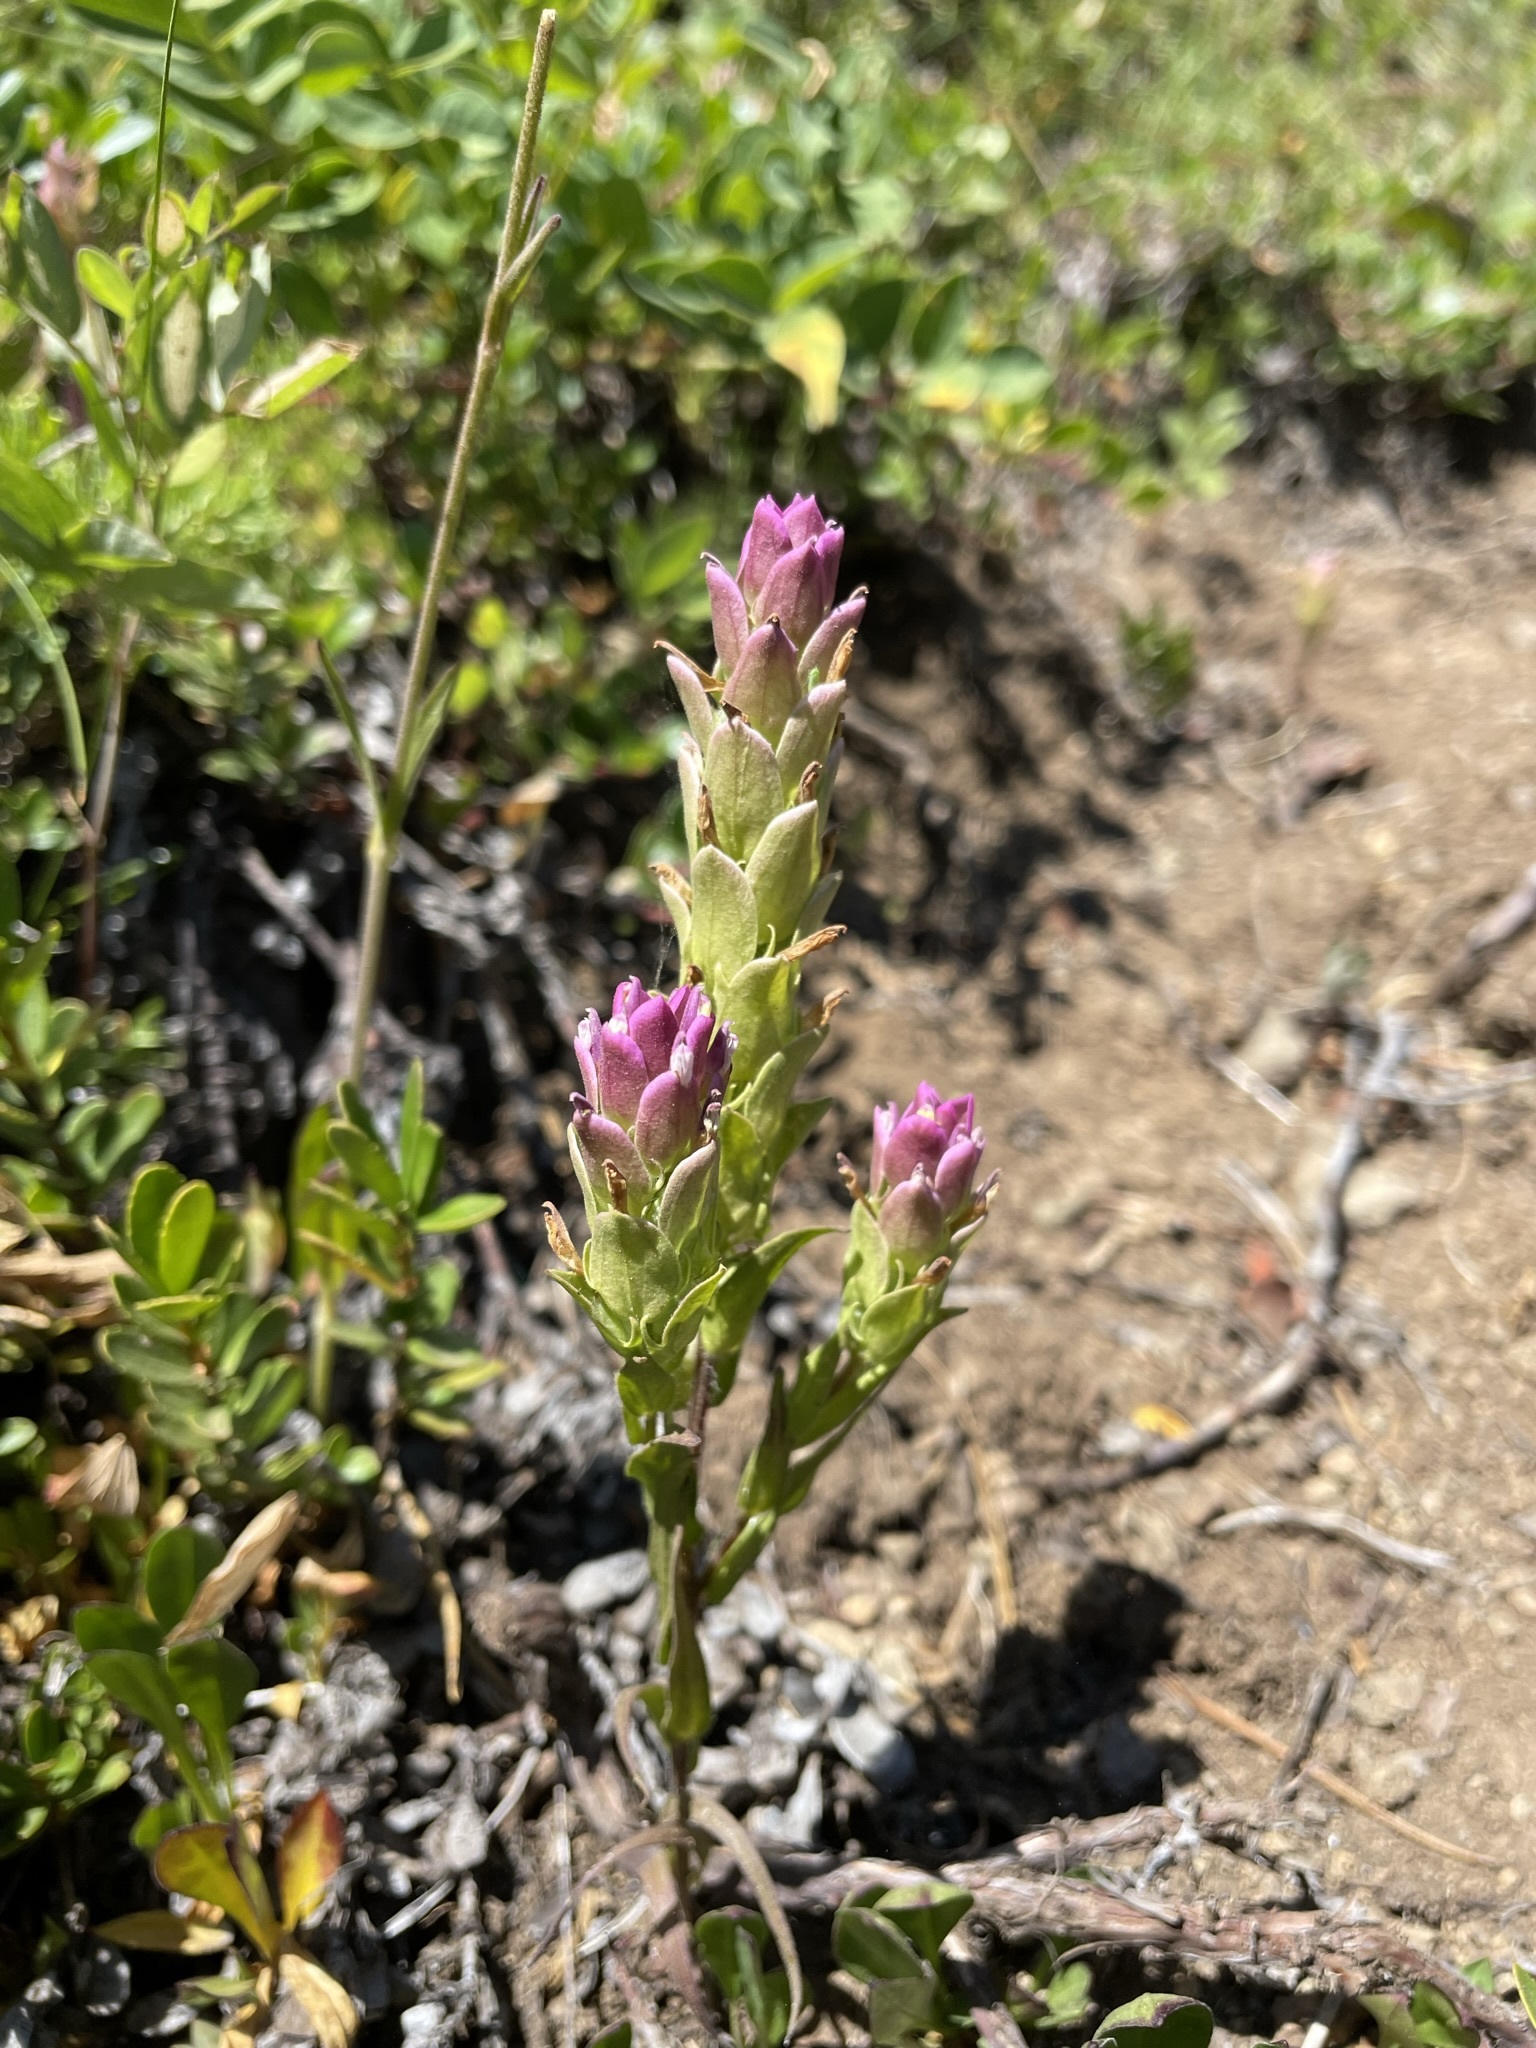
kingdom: Plantae
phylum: Tracheophyta
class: Magnoliopsida
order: Lamiales
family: Orobanchaceae
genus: Orthocarpus
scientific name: Orthocarpus imbricatus
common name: Mountain owl's-clover
